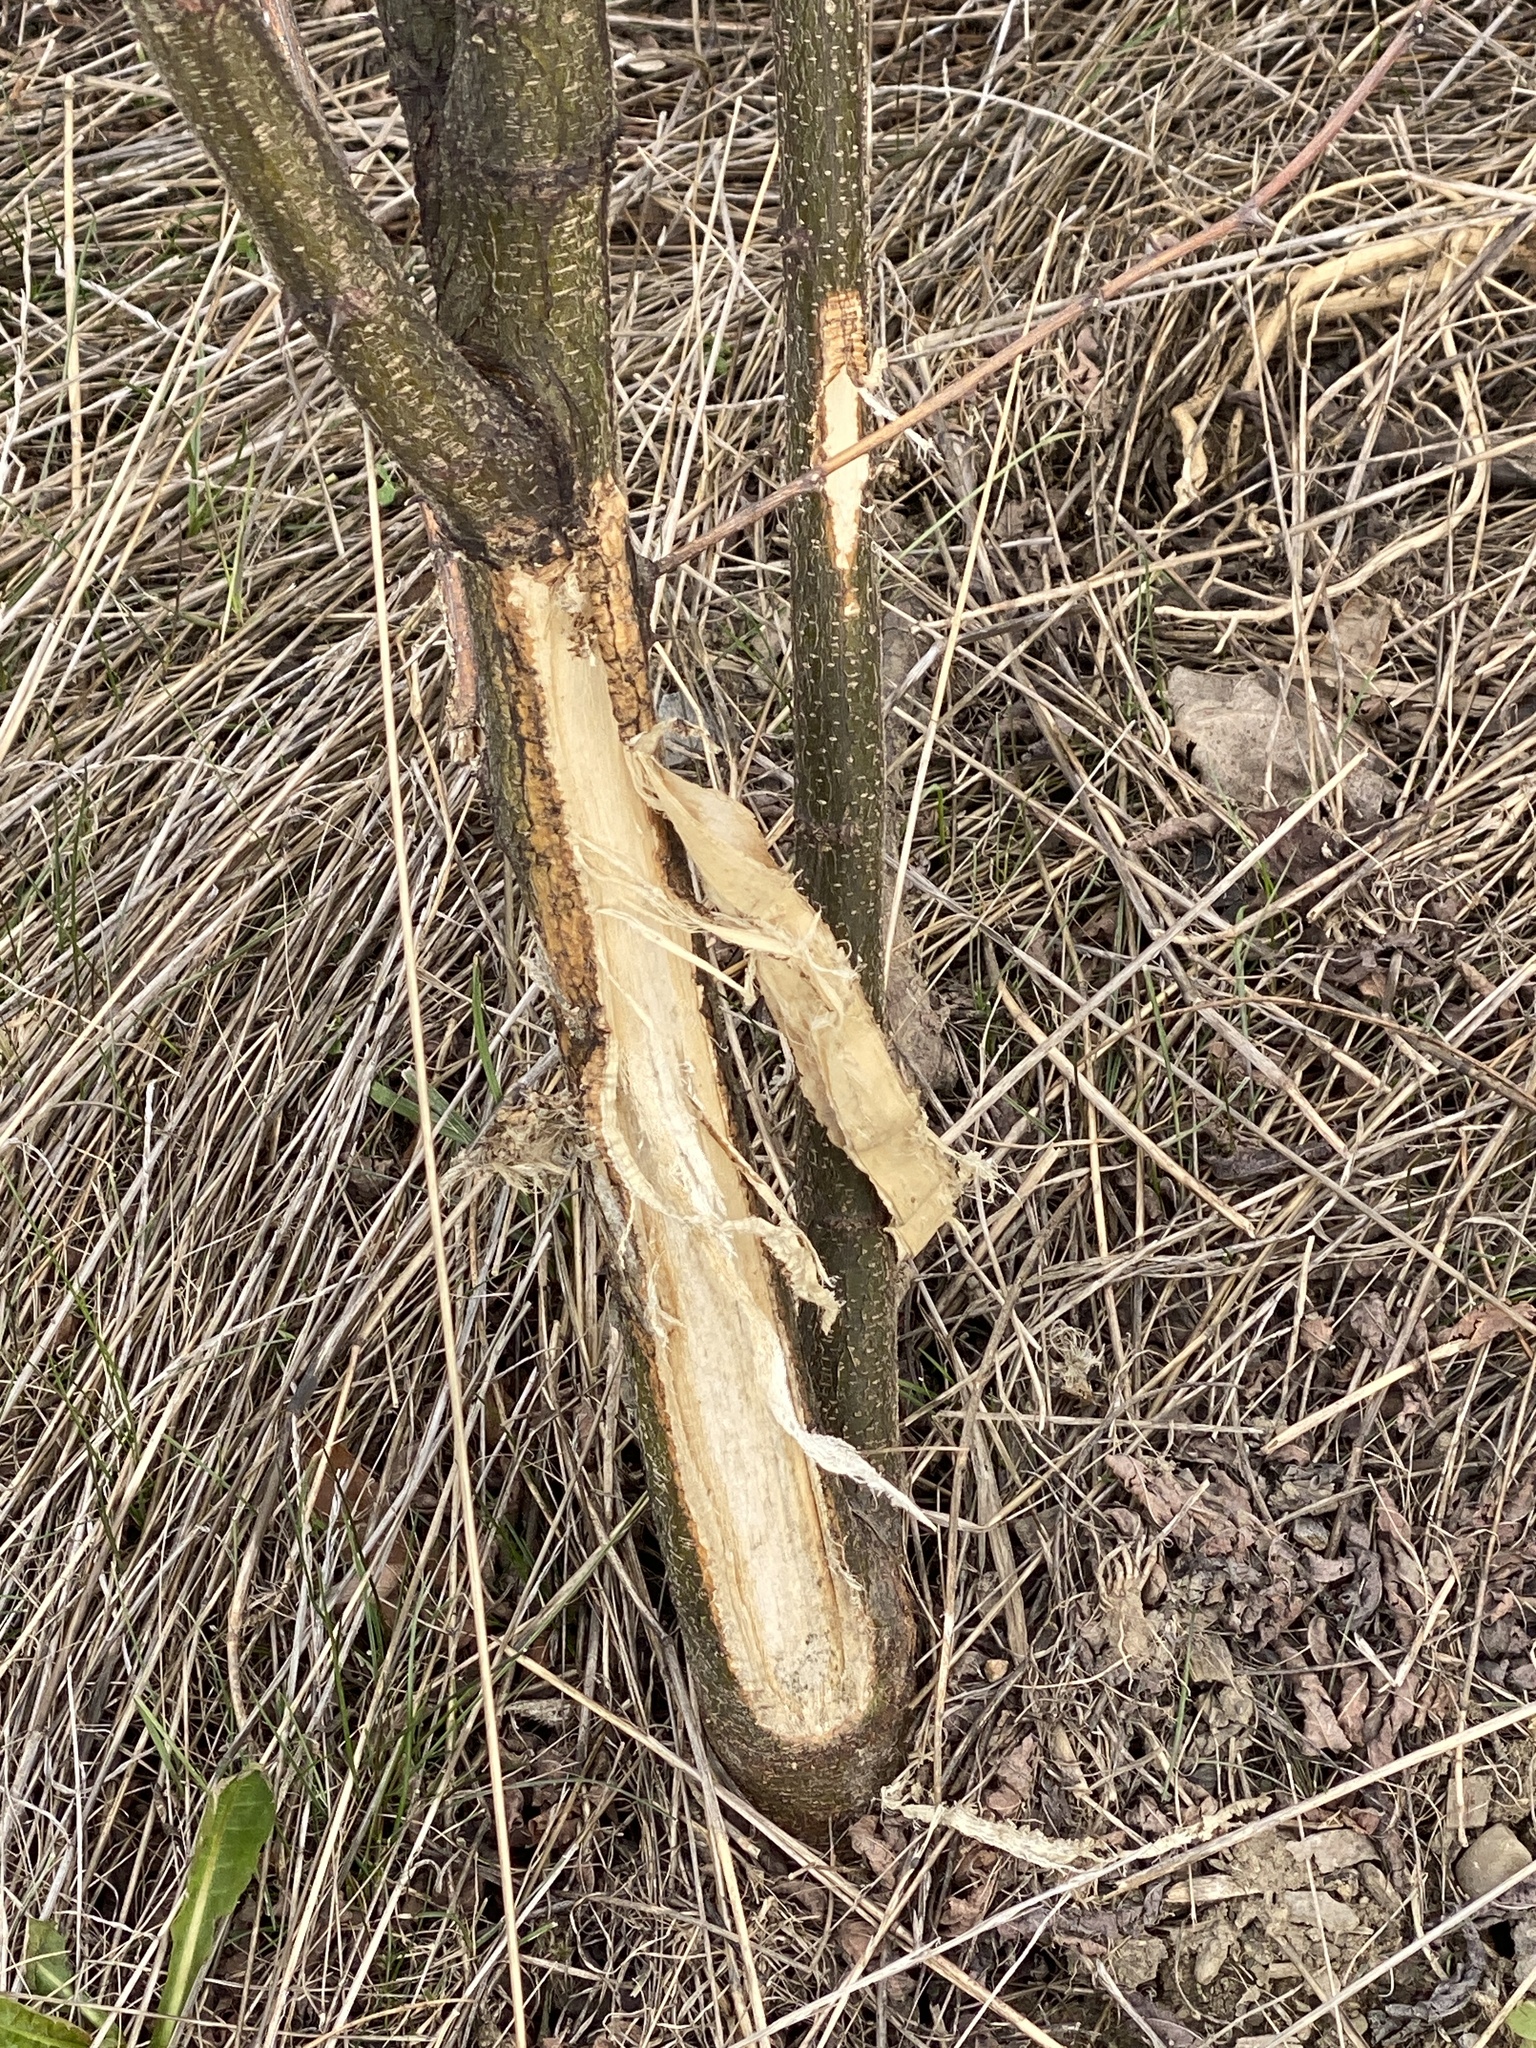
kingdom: Animalia
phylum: Chordata
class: Mammalia
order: Artiodactyla
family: Cervidae
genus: Odocoileus
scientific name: Odocoileus virginianus
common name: White-tailed deer
